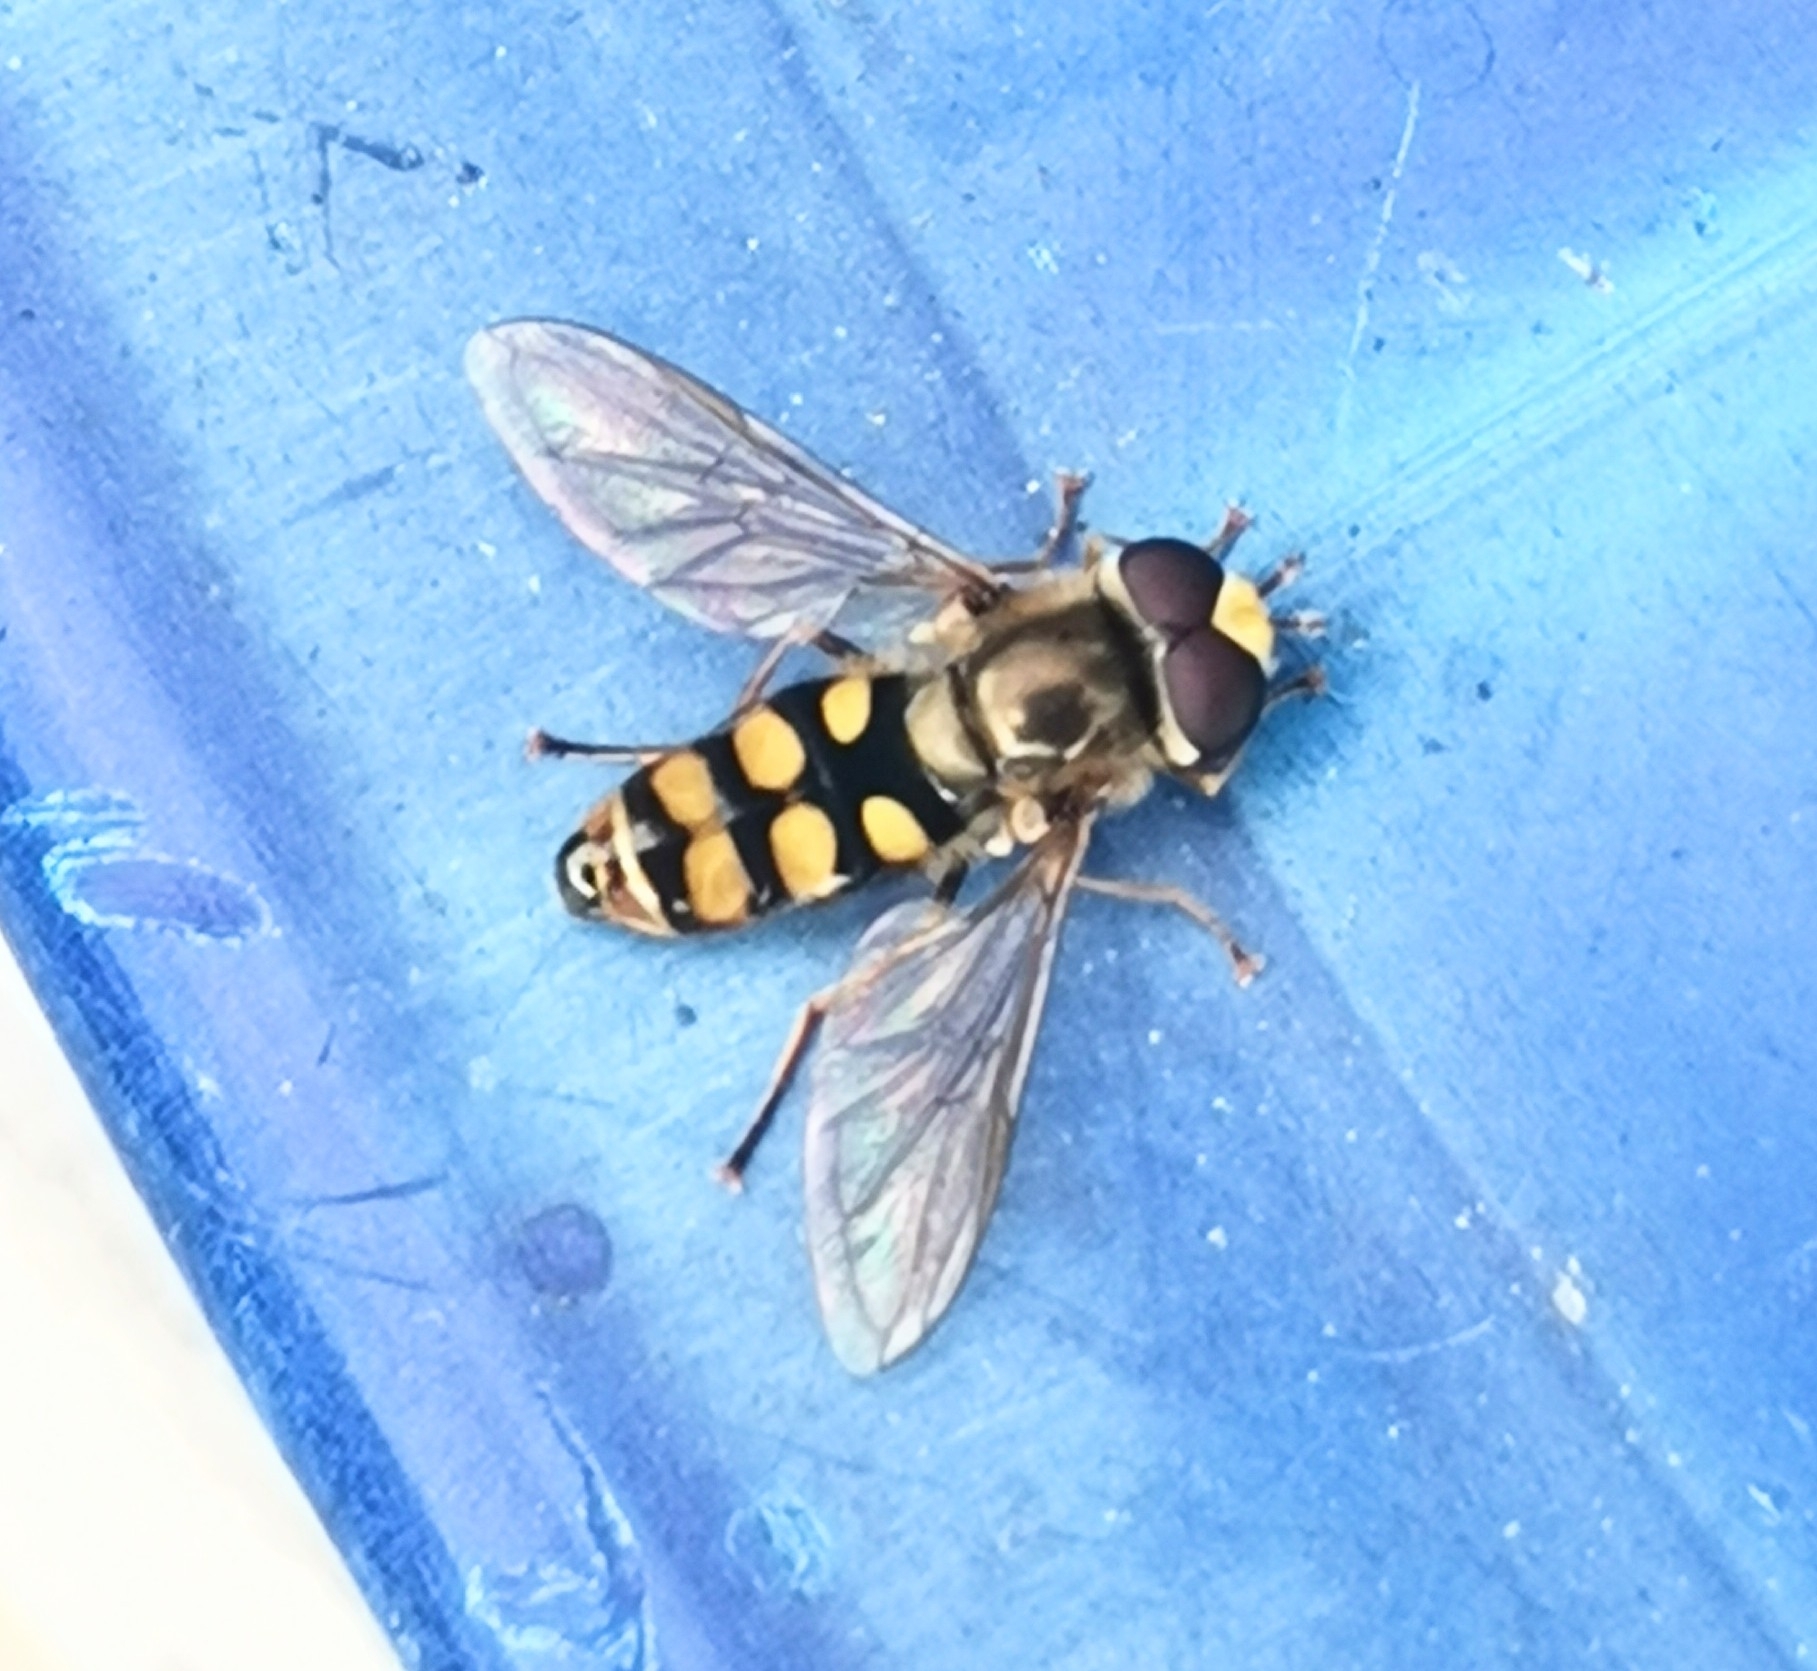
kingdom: Animalia
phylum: Arthropoda
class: Insecta
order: Diptera
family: Syrphidae
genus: Eupeodes
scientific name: Eupeodes corollae
